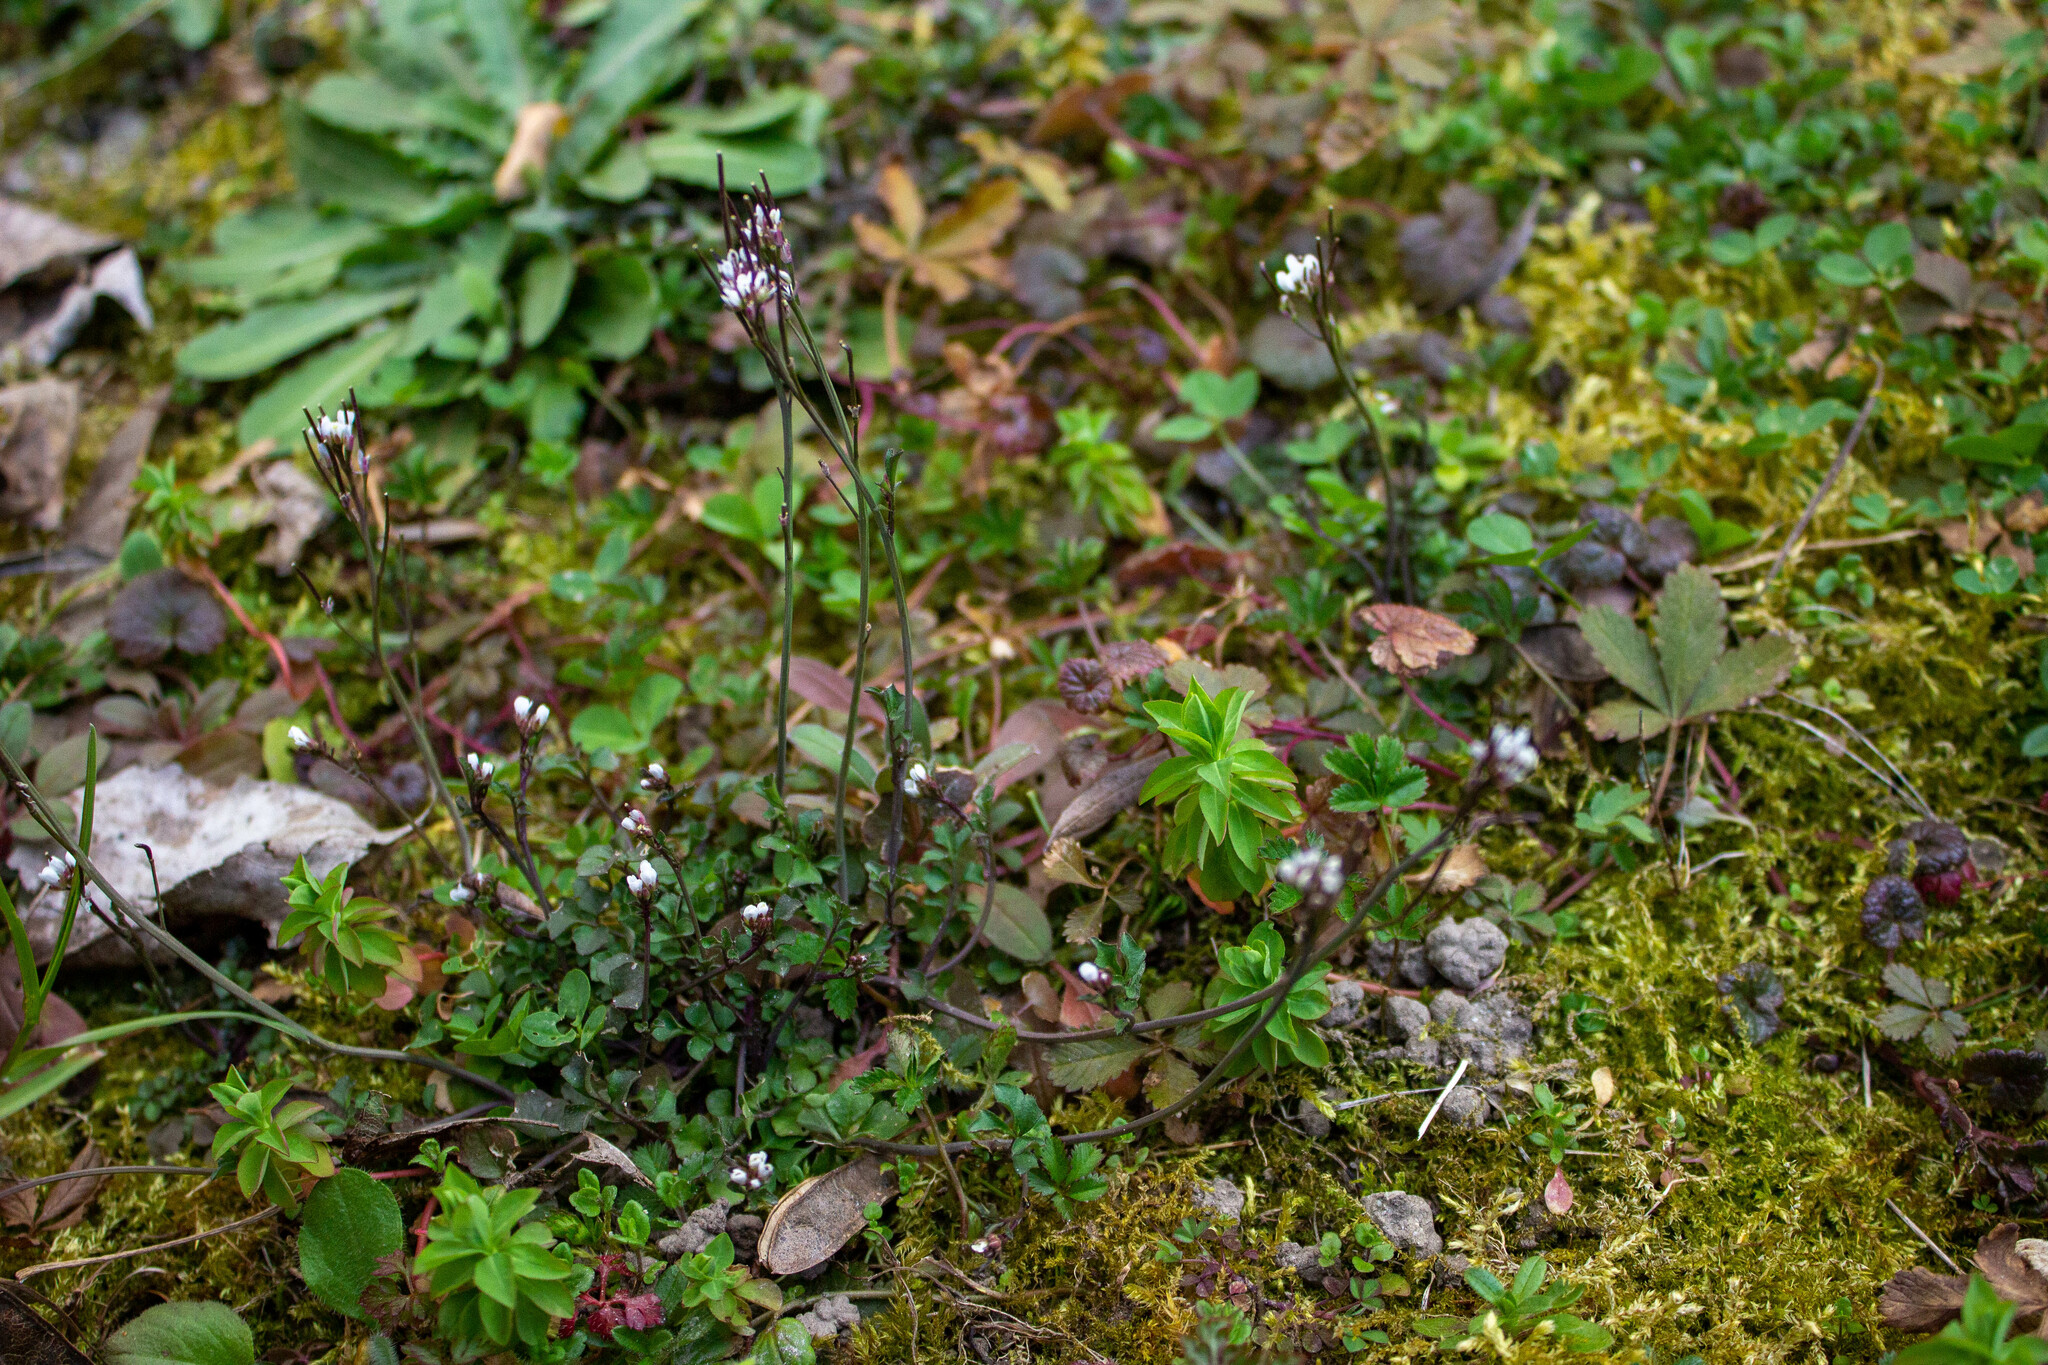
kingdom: Plantae
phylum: Tracheophyta
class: Magnoliopsida
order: Brassicales
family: Brassicaceae
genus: Cardamine
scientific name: Cardamine hirsuta
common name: Hairy bittercress
